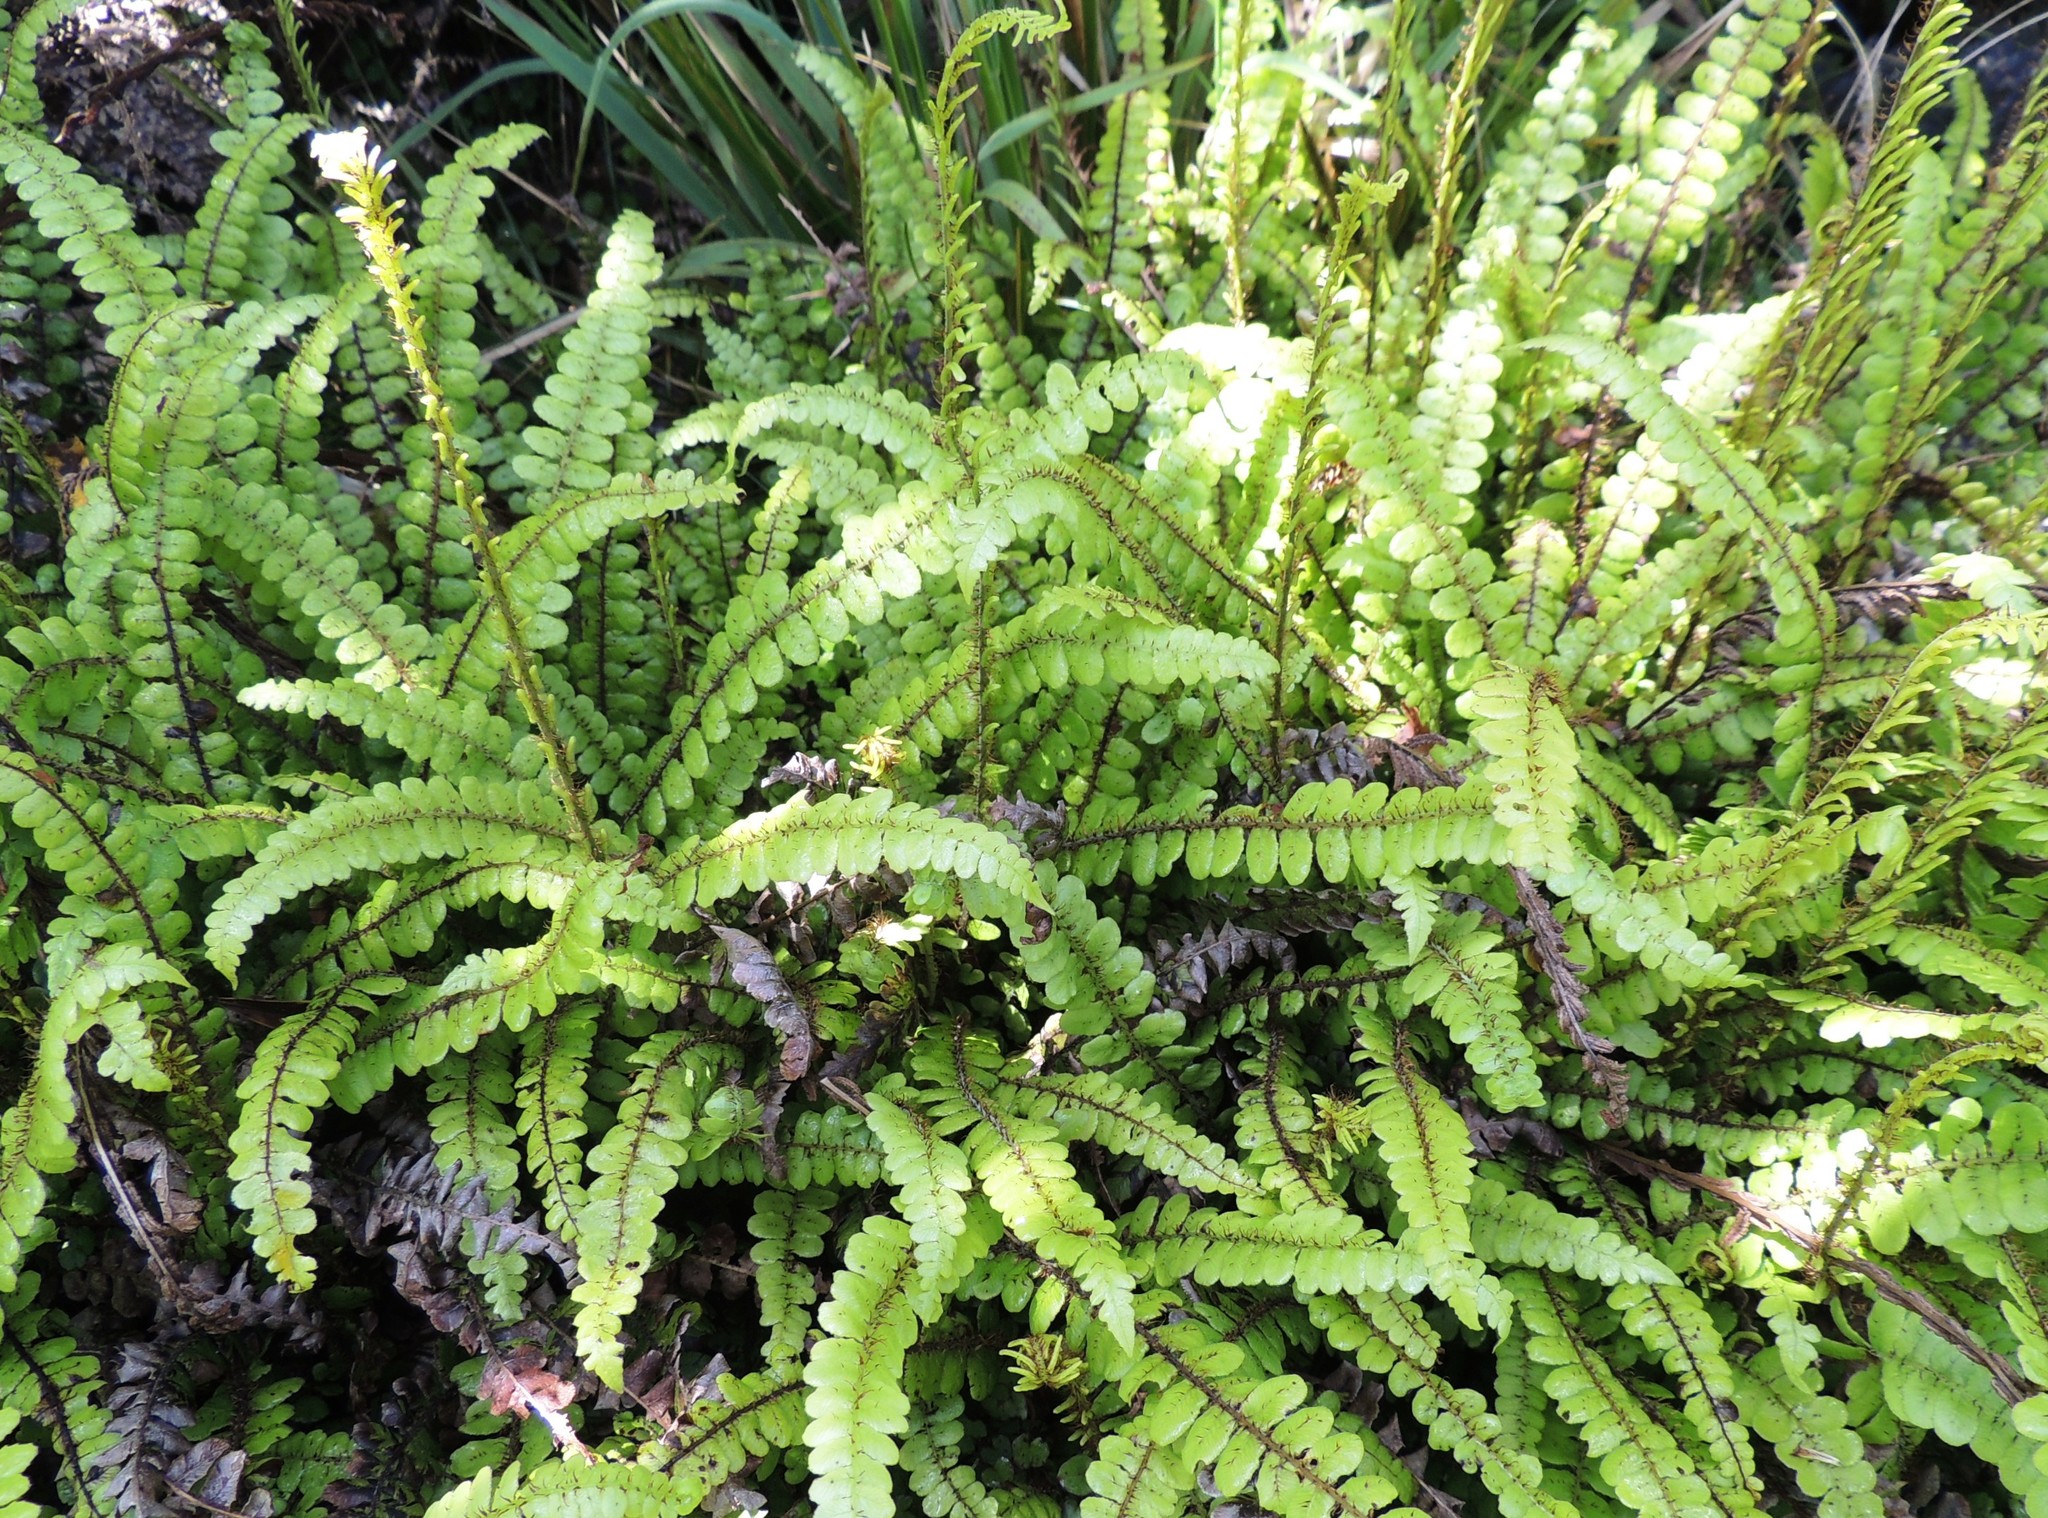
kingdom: Plantae
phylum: Tracheophyta
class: Polypodiopsida
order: Polypodiales
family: Blechnaceae
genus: Cranfillia
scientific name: Cranfillia fluviatilis
